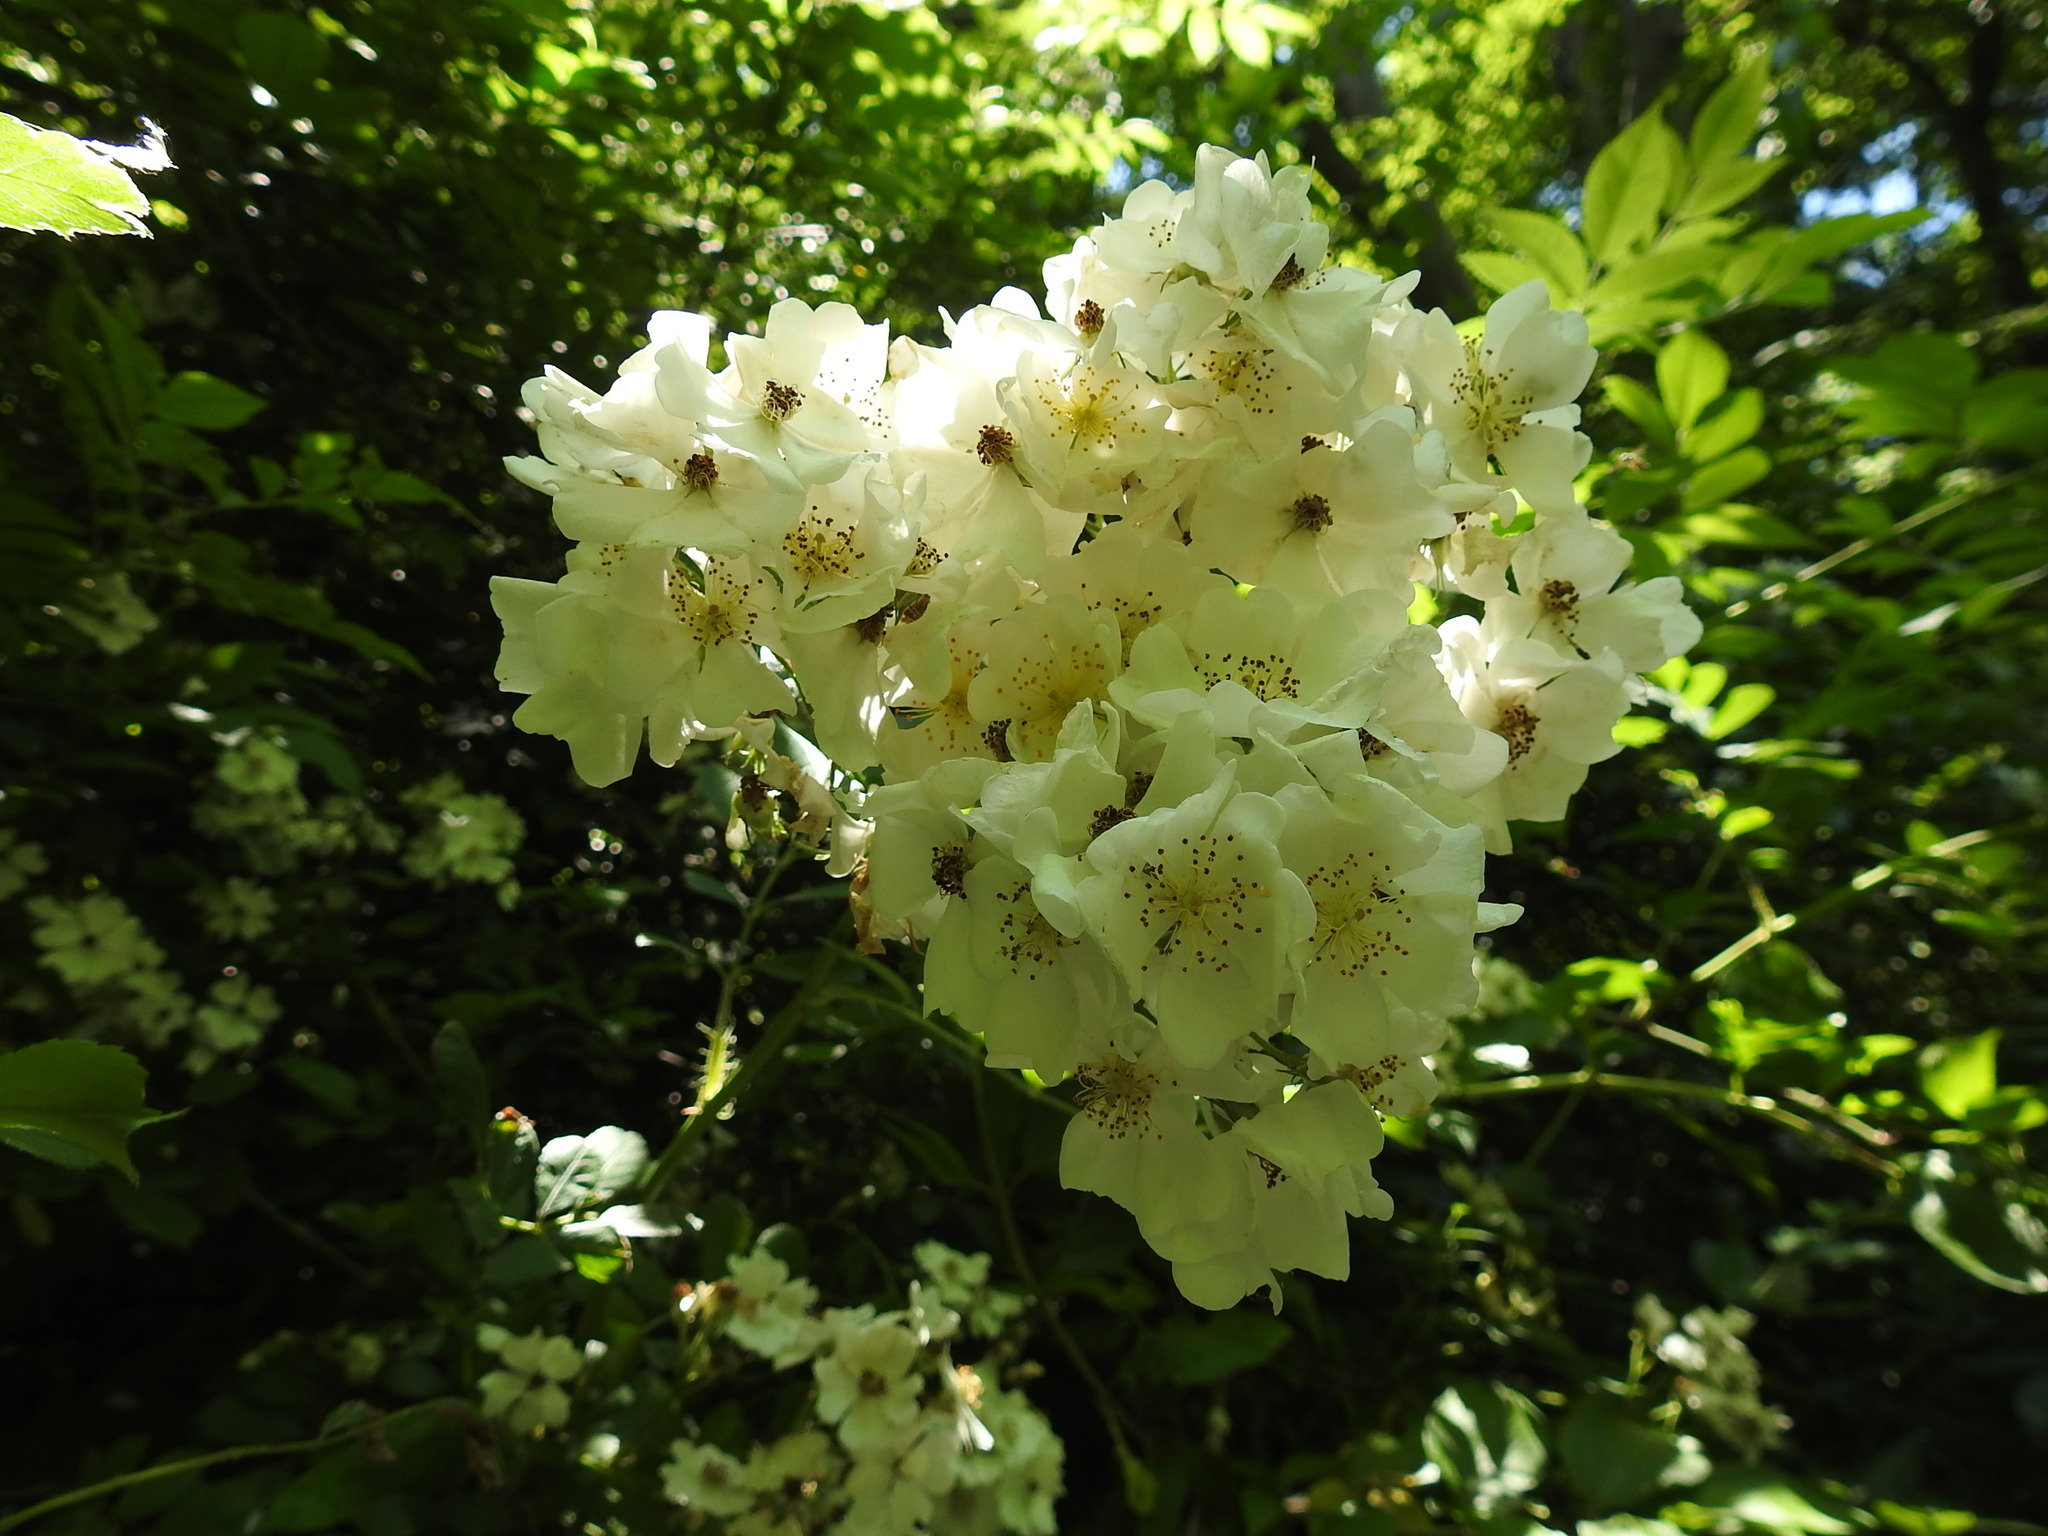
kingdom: Plantae
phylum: Tracheophyta
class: Magnoliopsida
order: Rosales
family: Rosaceae
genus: Rosa
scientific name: Rosa multiflora
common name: Multiflora rose
